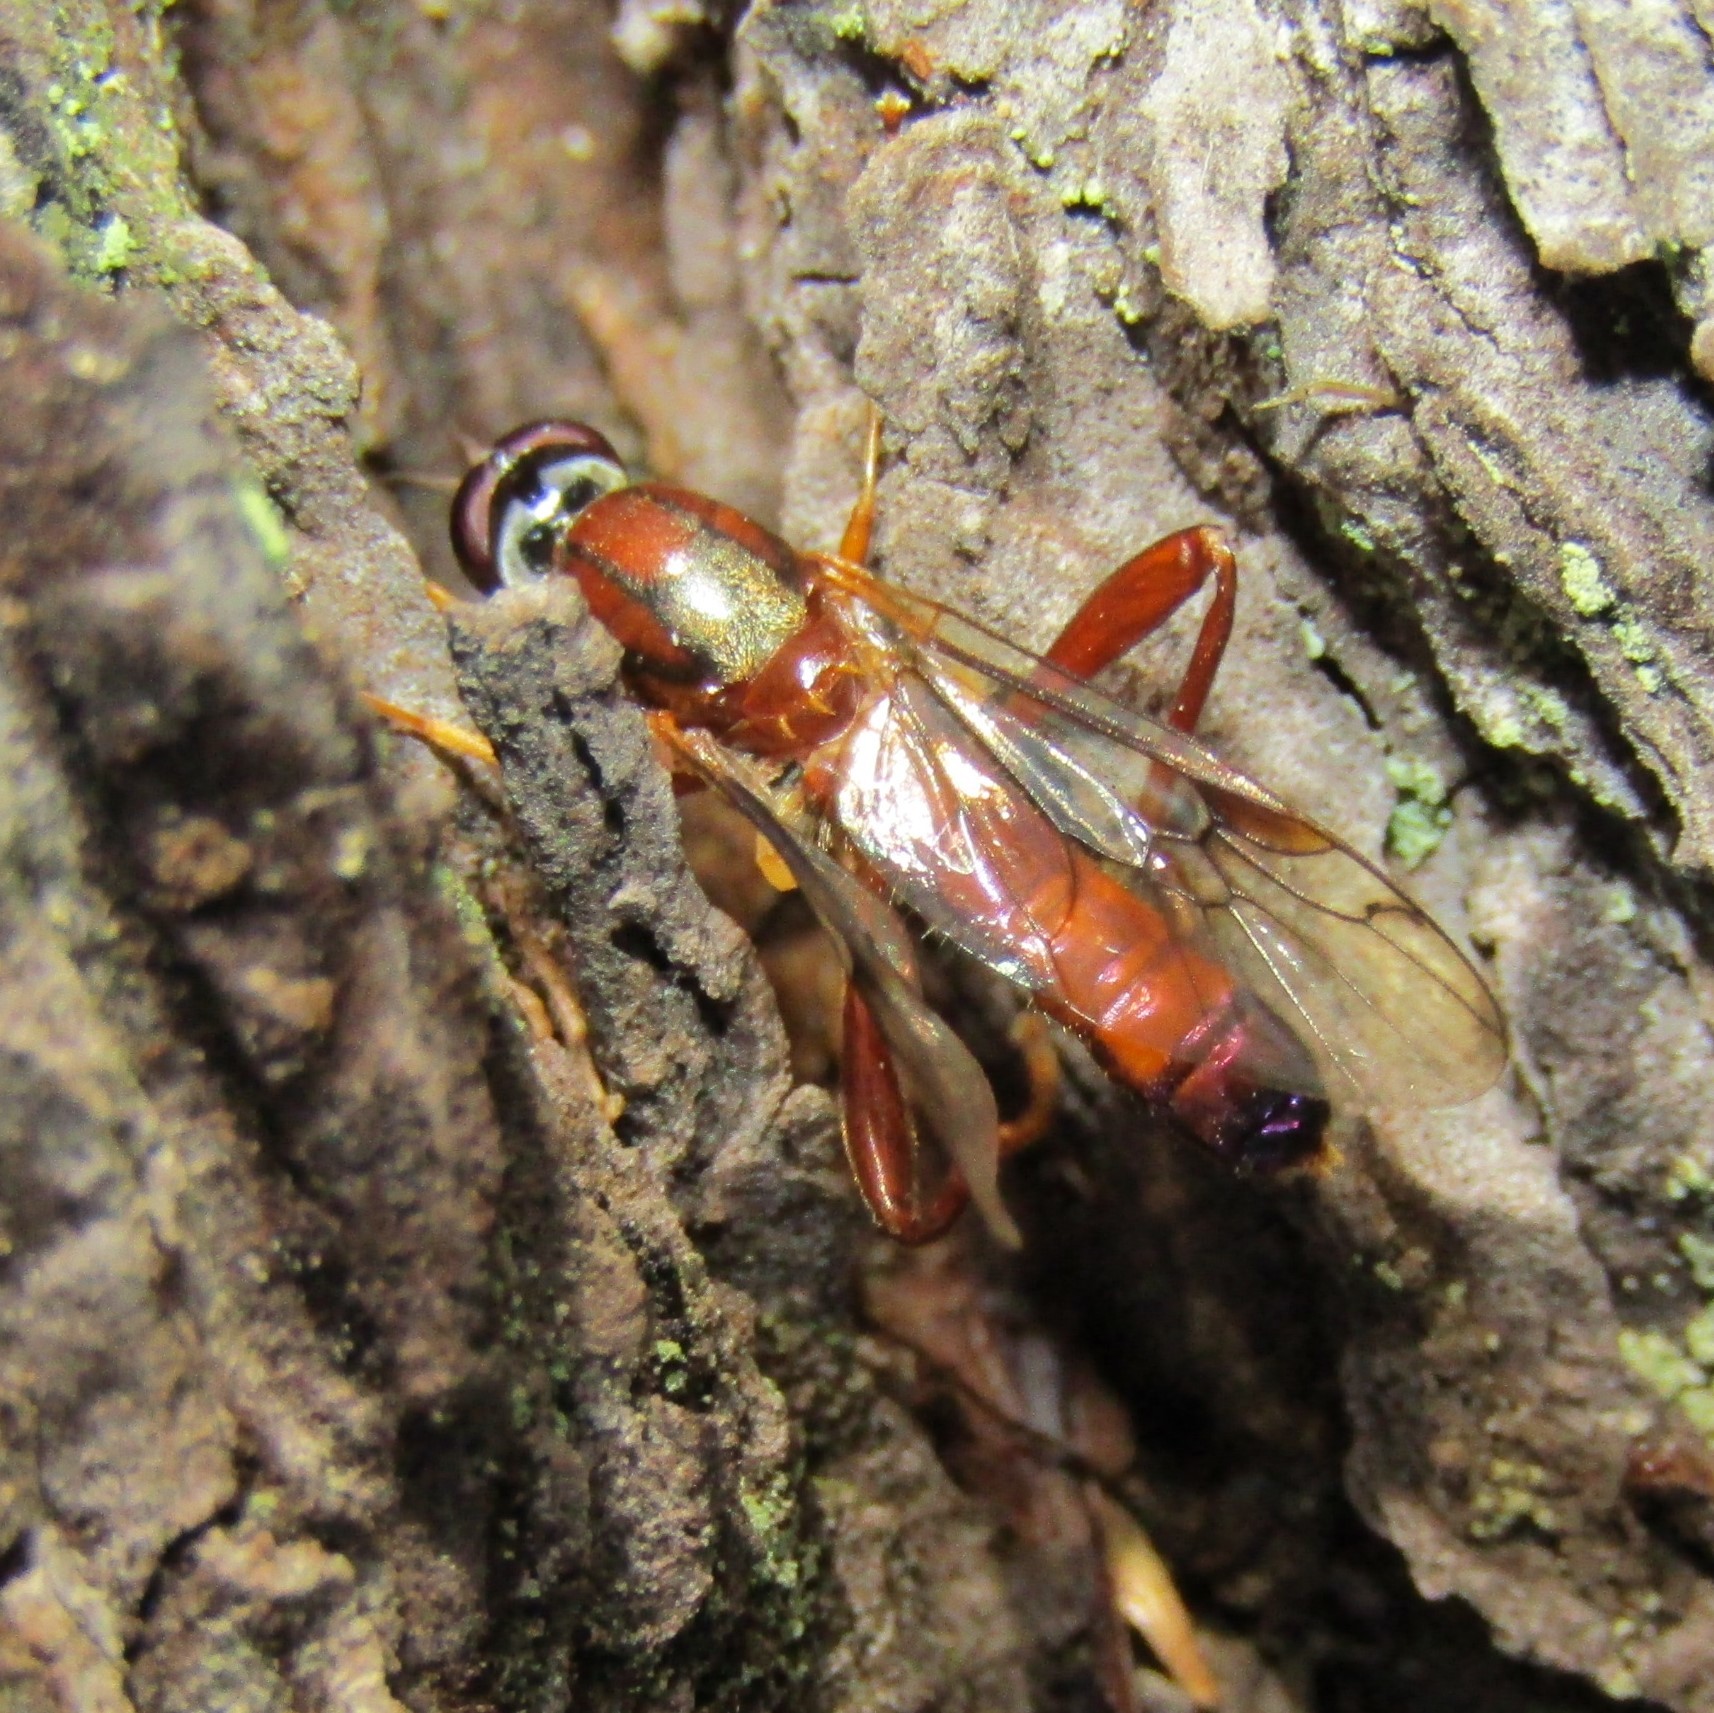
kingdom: Animalia
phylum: Arthropoda
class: Insecta
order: Diptera
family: Stratiomyidae
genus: Benhamyia
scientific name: Benhamyia straznitzkii
